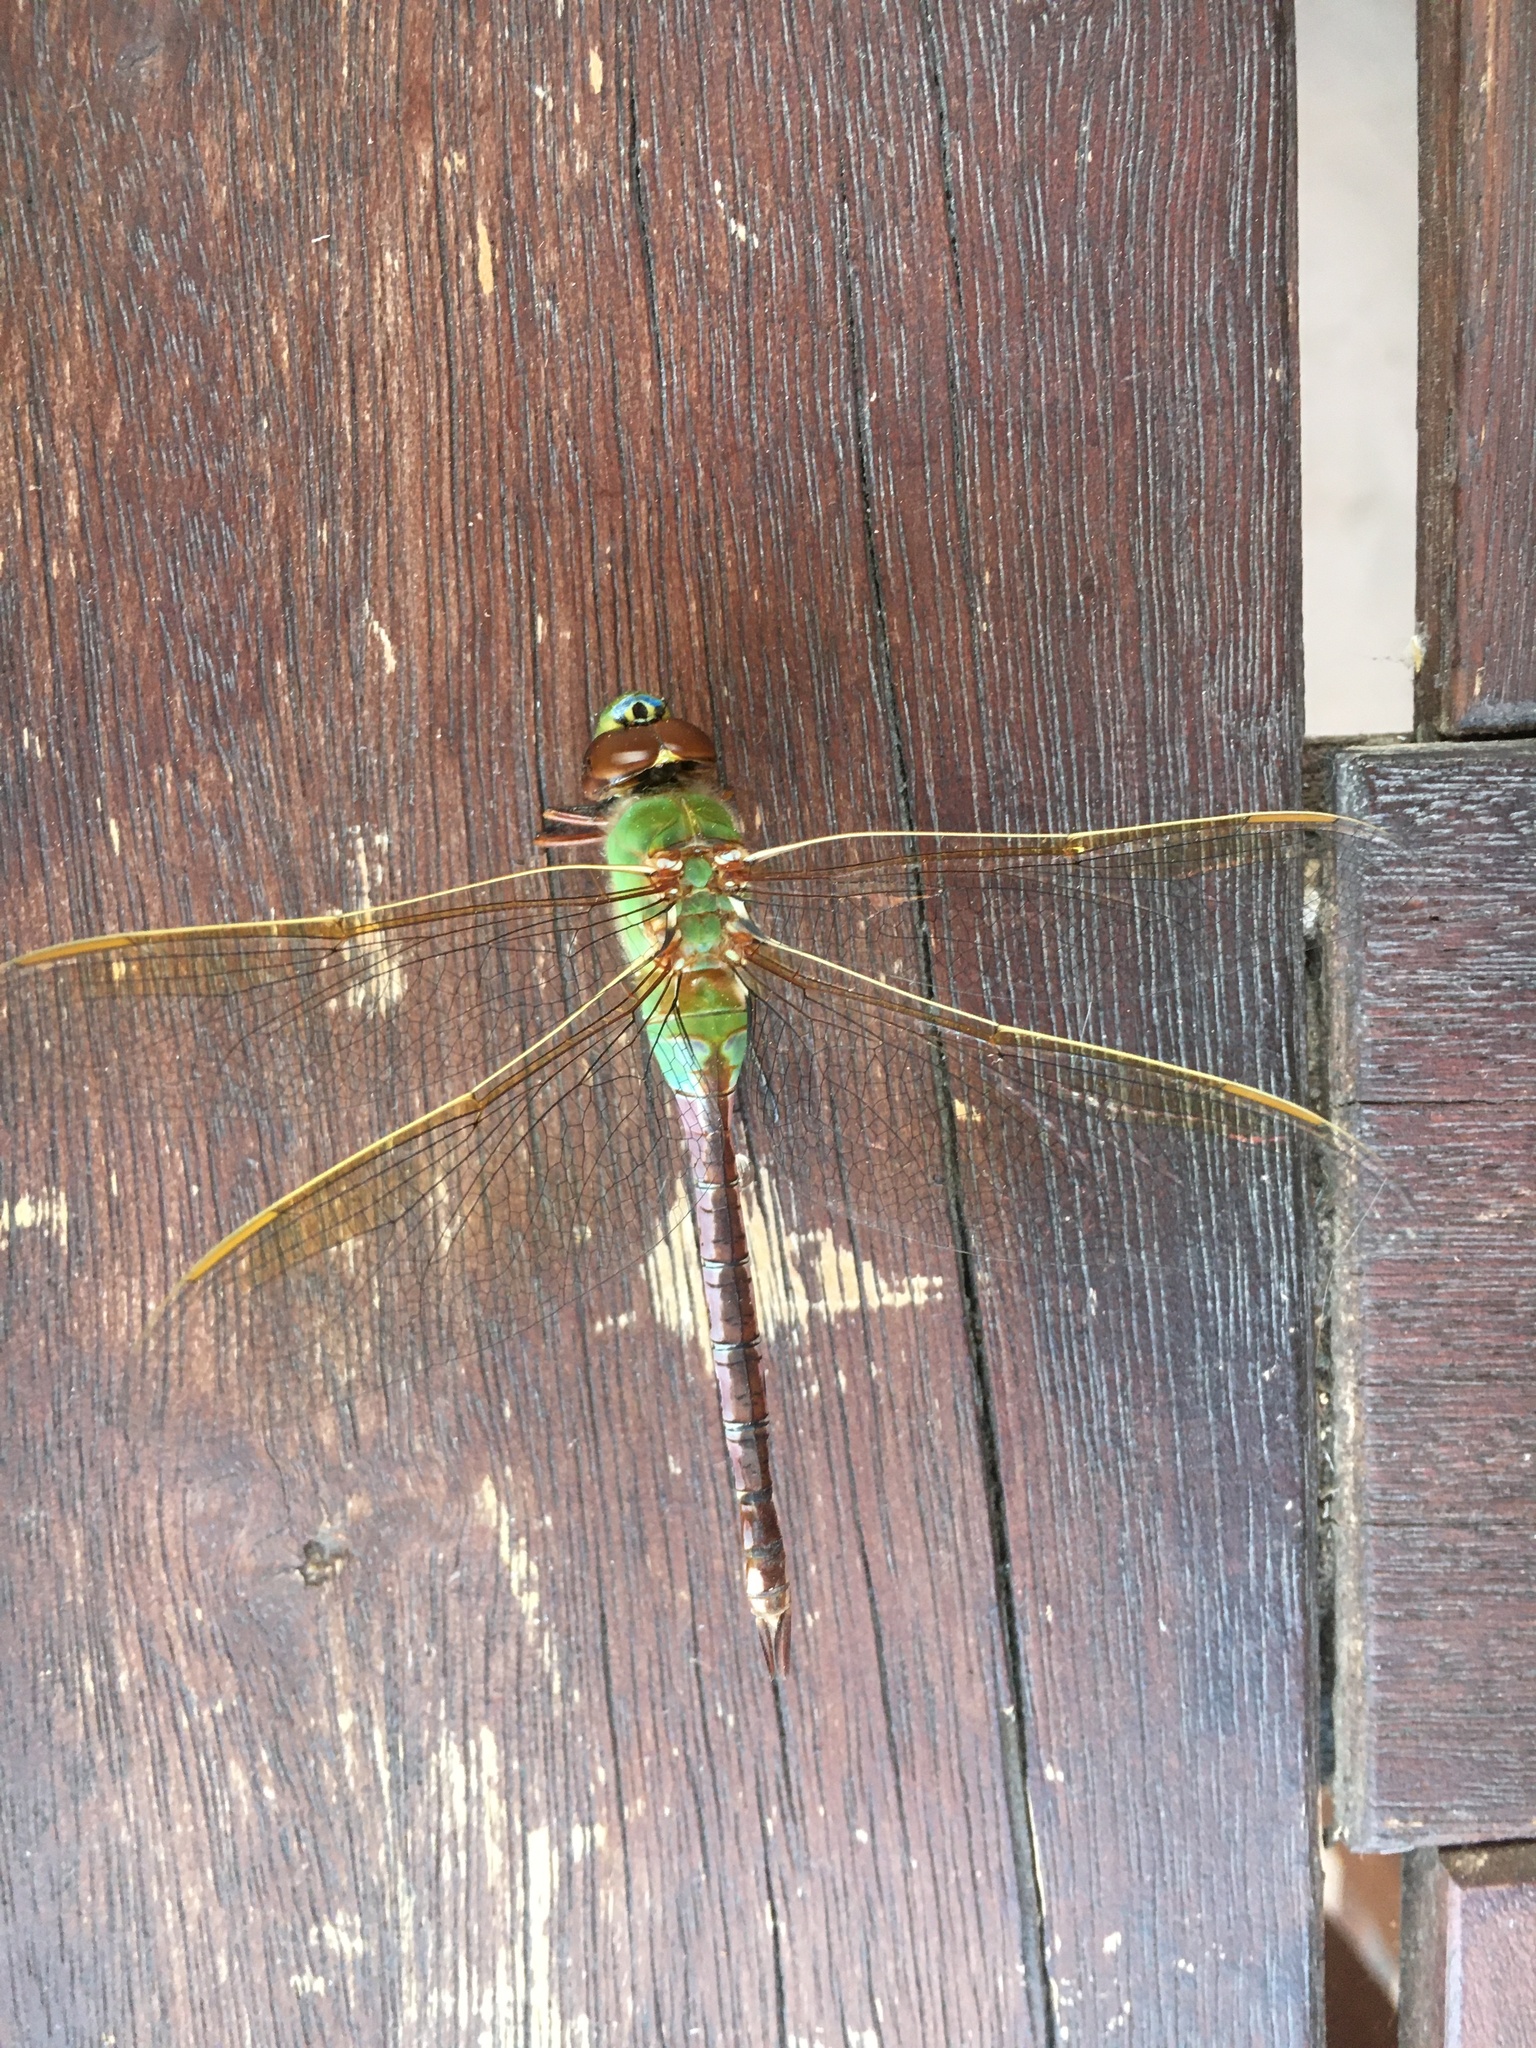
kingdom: Animalia
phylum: Arthropoda
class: Insecta
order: Odonata
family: Aeshnidae
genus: Anax
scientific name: Anax junius
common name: Common green darner
